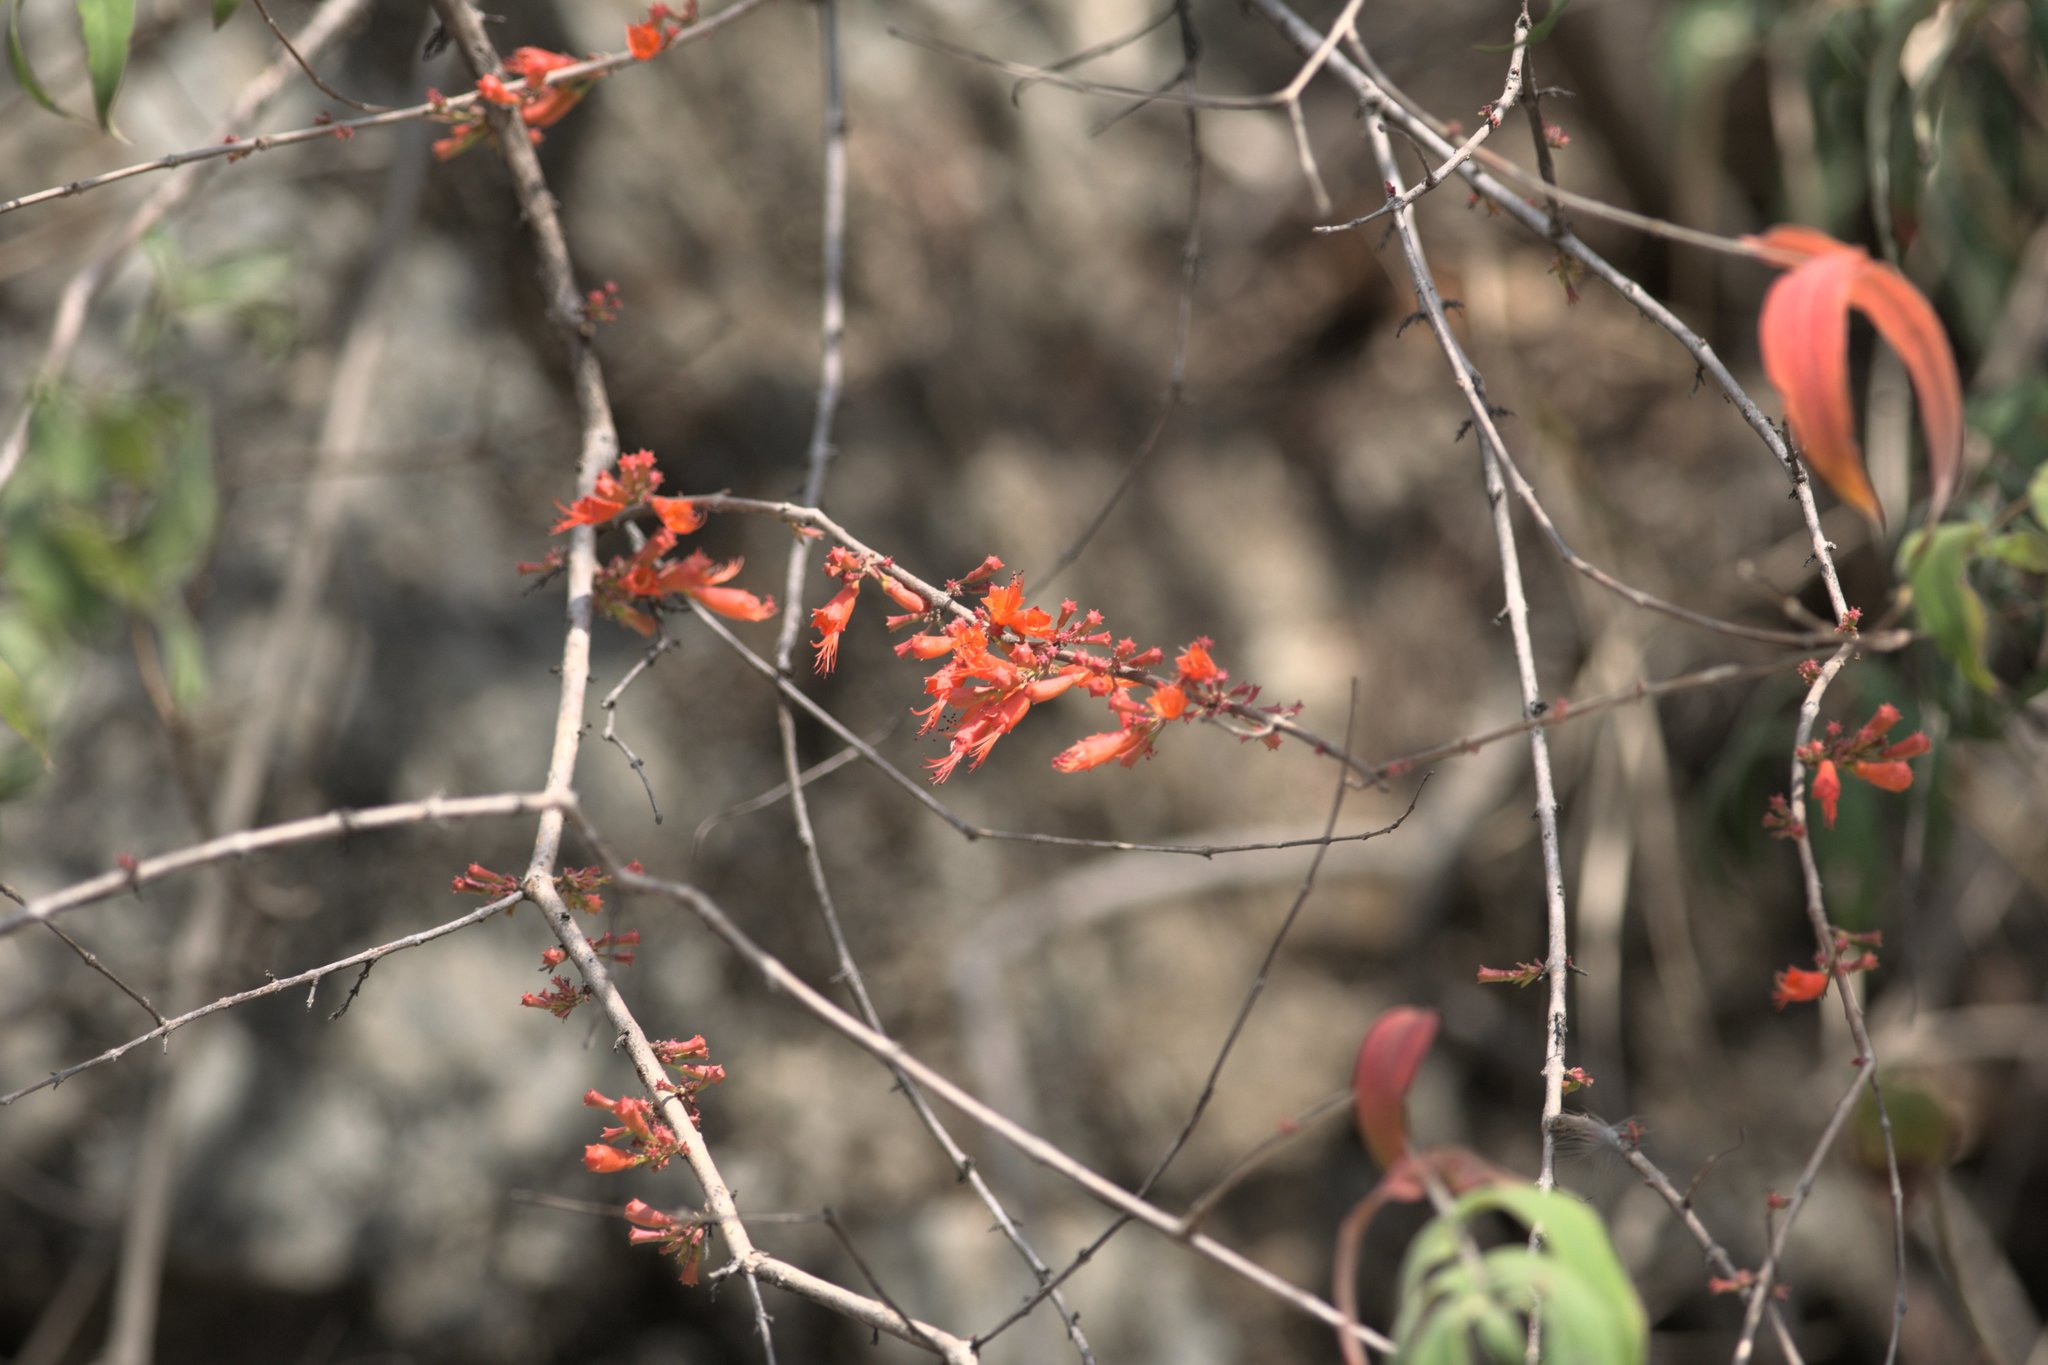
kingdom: Plantae
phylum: Tracheophyta
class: Magnoliopsida
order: Myrtales
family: Lythraceae
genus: Woodfordia
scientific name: Woodfordia fruticosa
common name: Shiranji-tea
